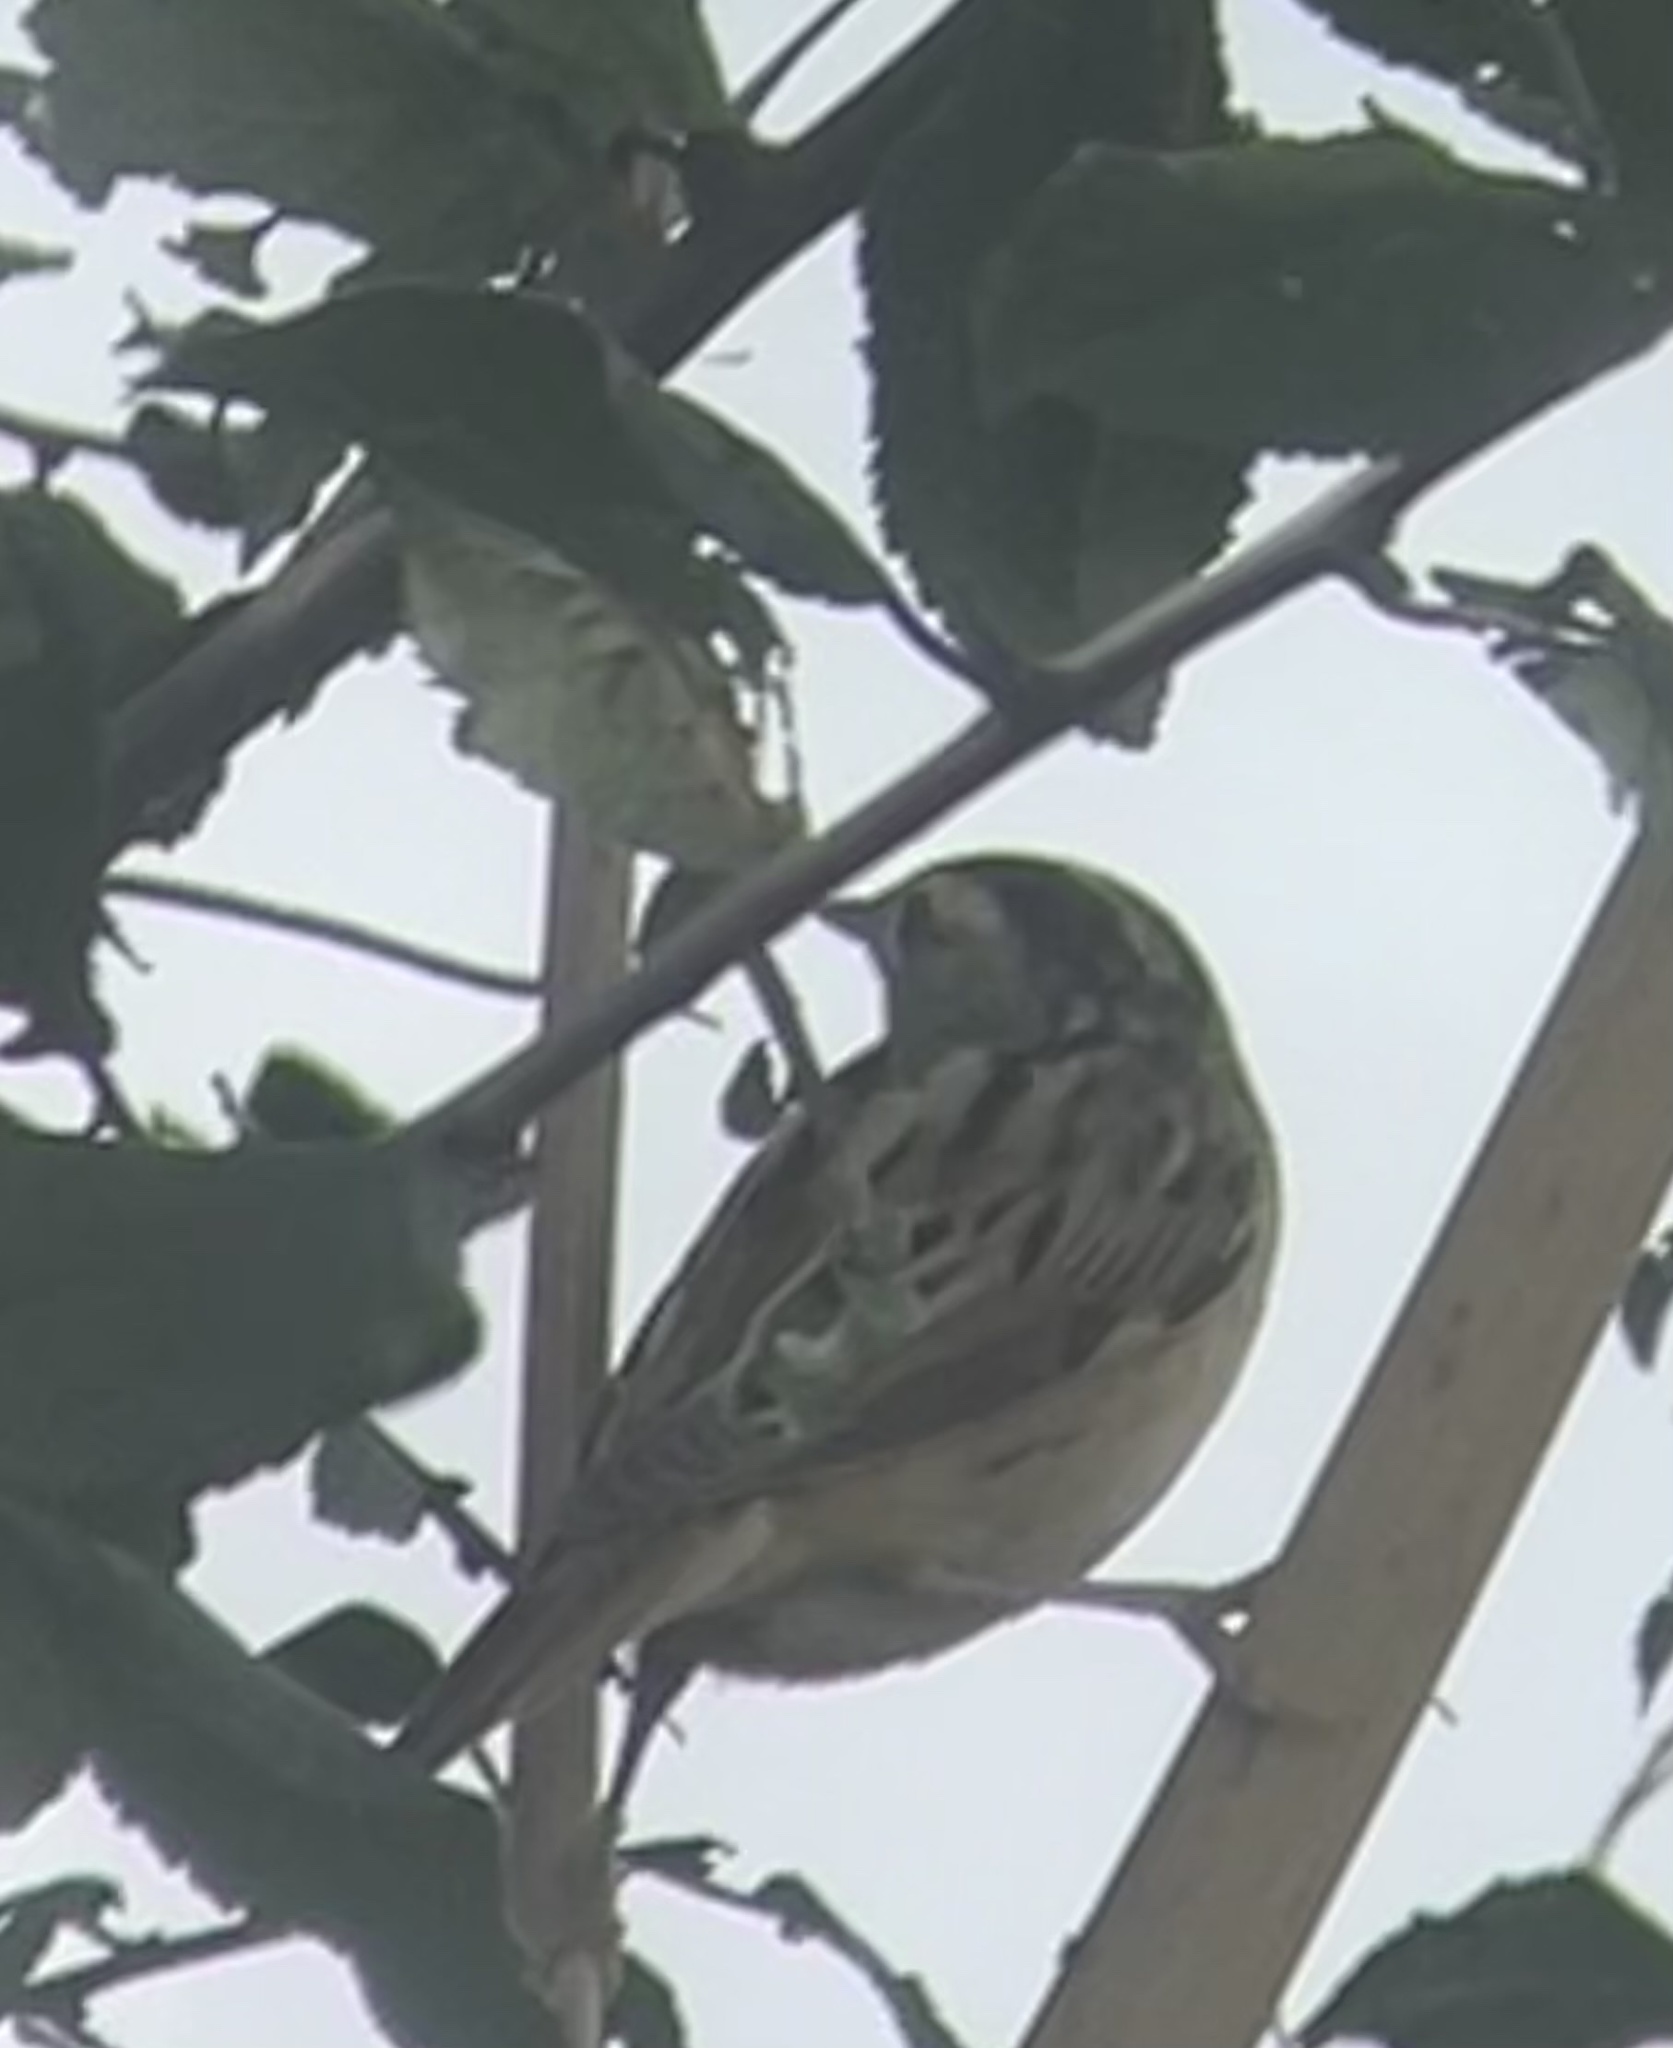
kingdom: Animalia
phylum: Chordata
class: Aves
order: Passeriformes
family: Acrocephalidae
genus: Acrocephalus
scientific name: Acrocephalus paludicola
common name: Aquatic warbler
